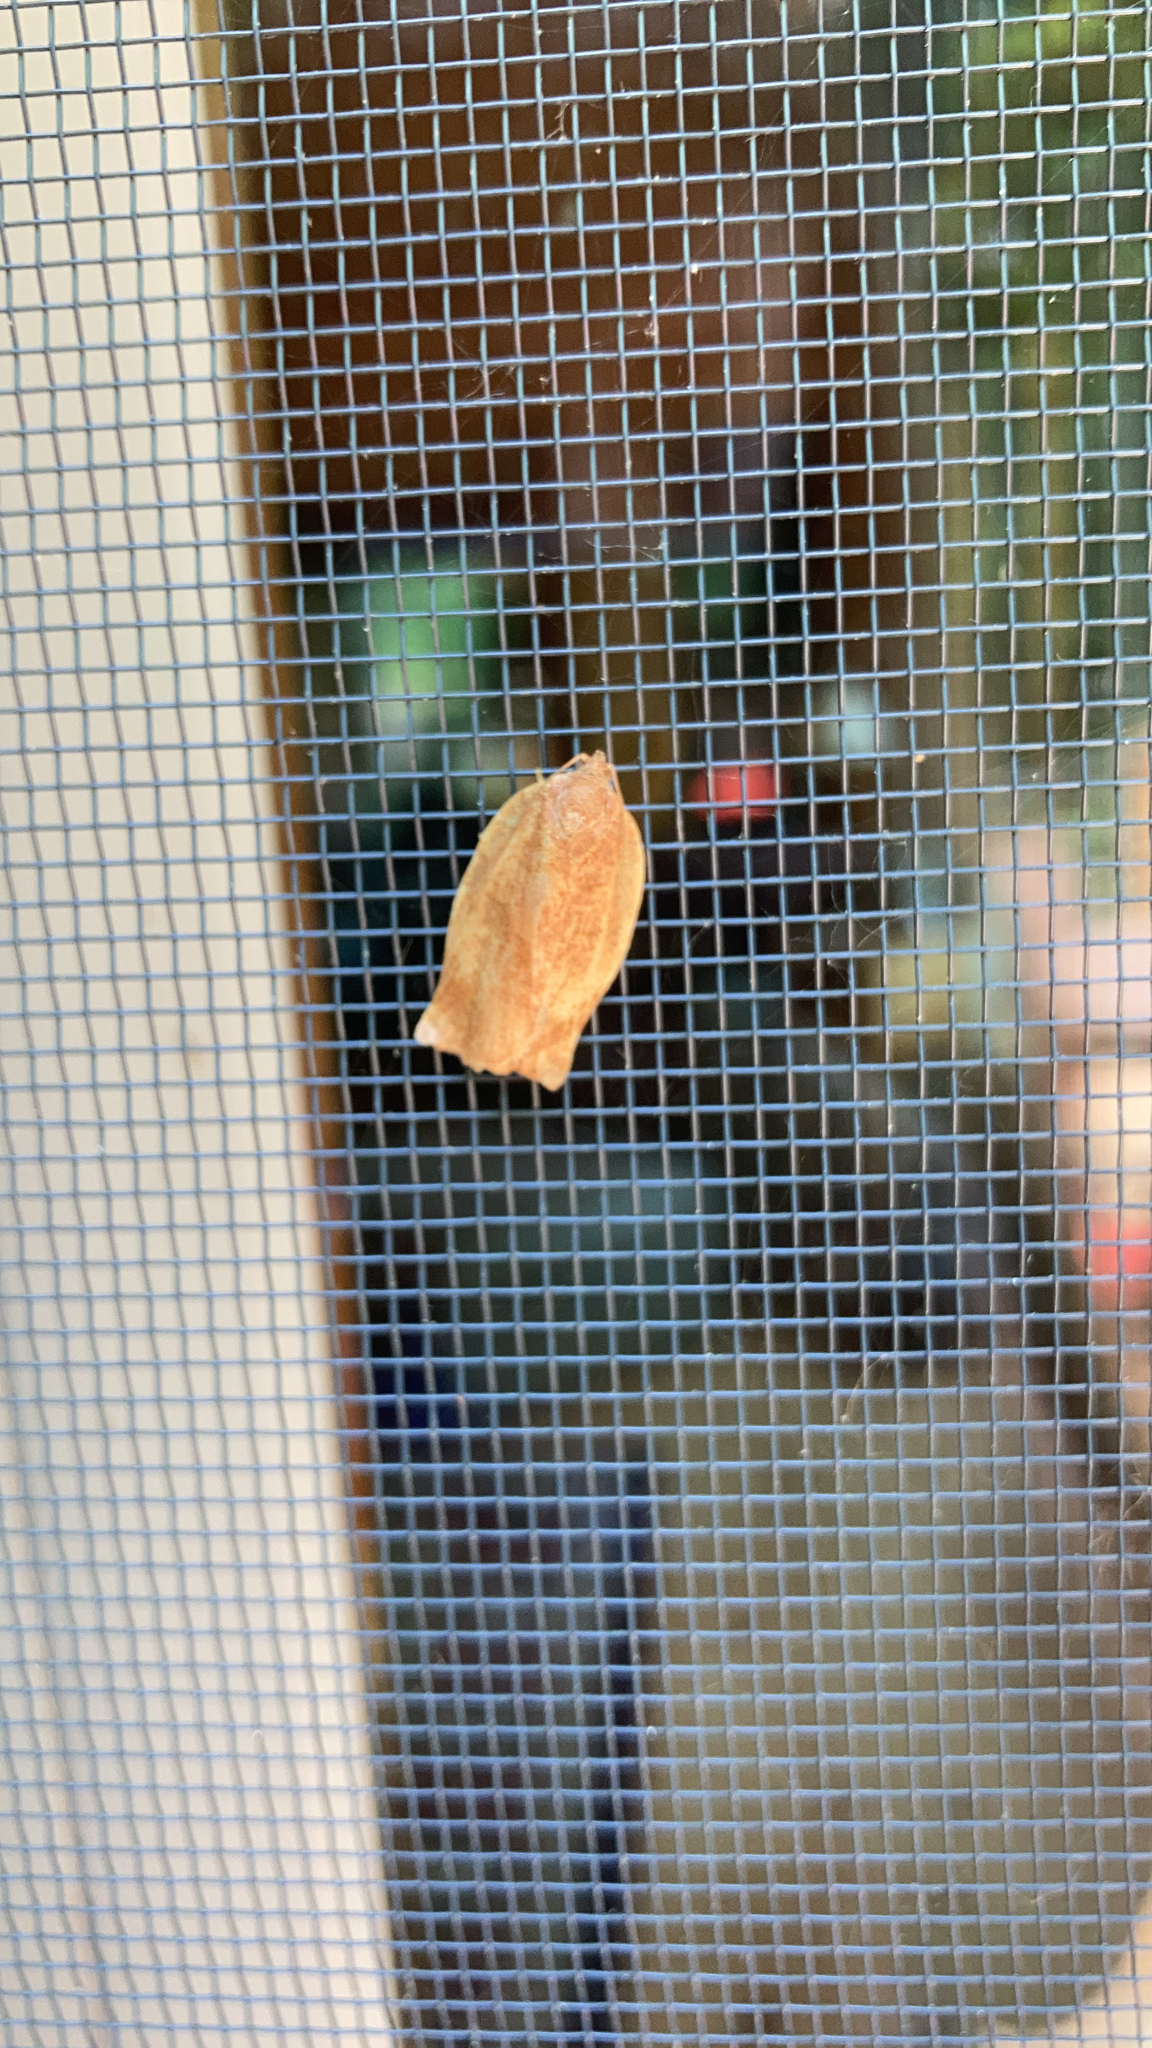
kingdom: Animalia
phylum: Arthropoda
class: Insecta
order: Lepidoptera
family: Tortricidae
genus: Choristoneura
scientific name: Choristoneura rosaceana
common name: Oblique-banded leafroller moth
